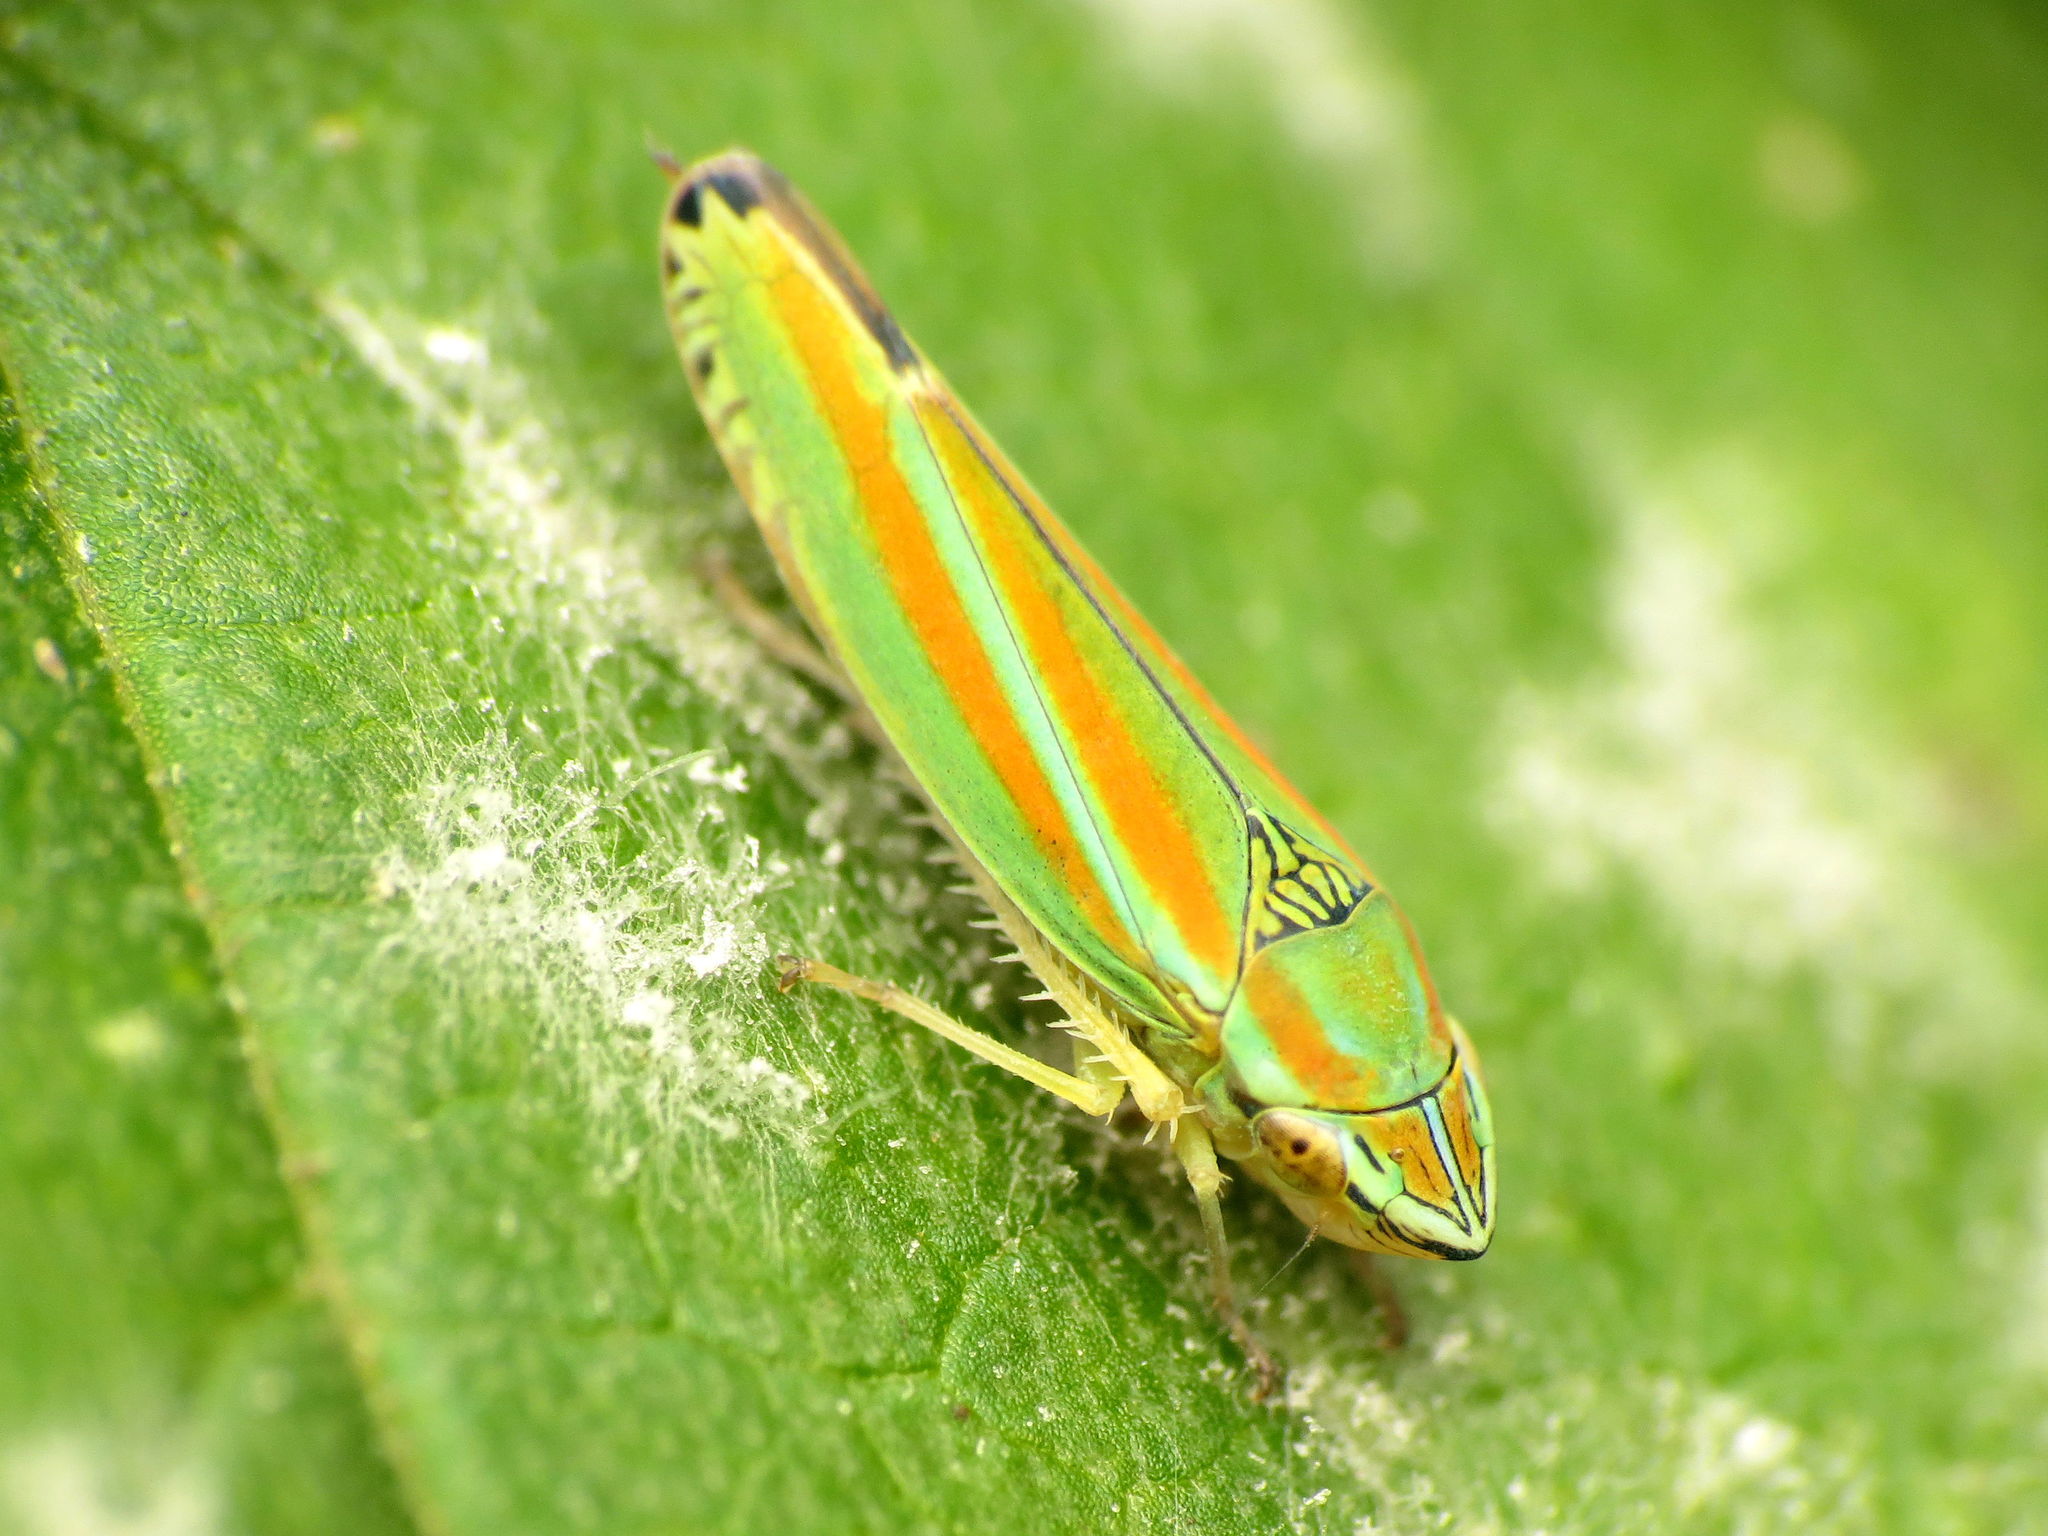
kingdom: Animalia
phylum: Arthropoda
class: Insecta
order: Hemiptera
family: Cicadellidae
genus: Graphocephala
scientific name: Graphocephala versuta
